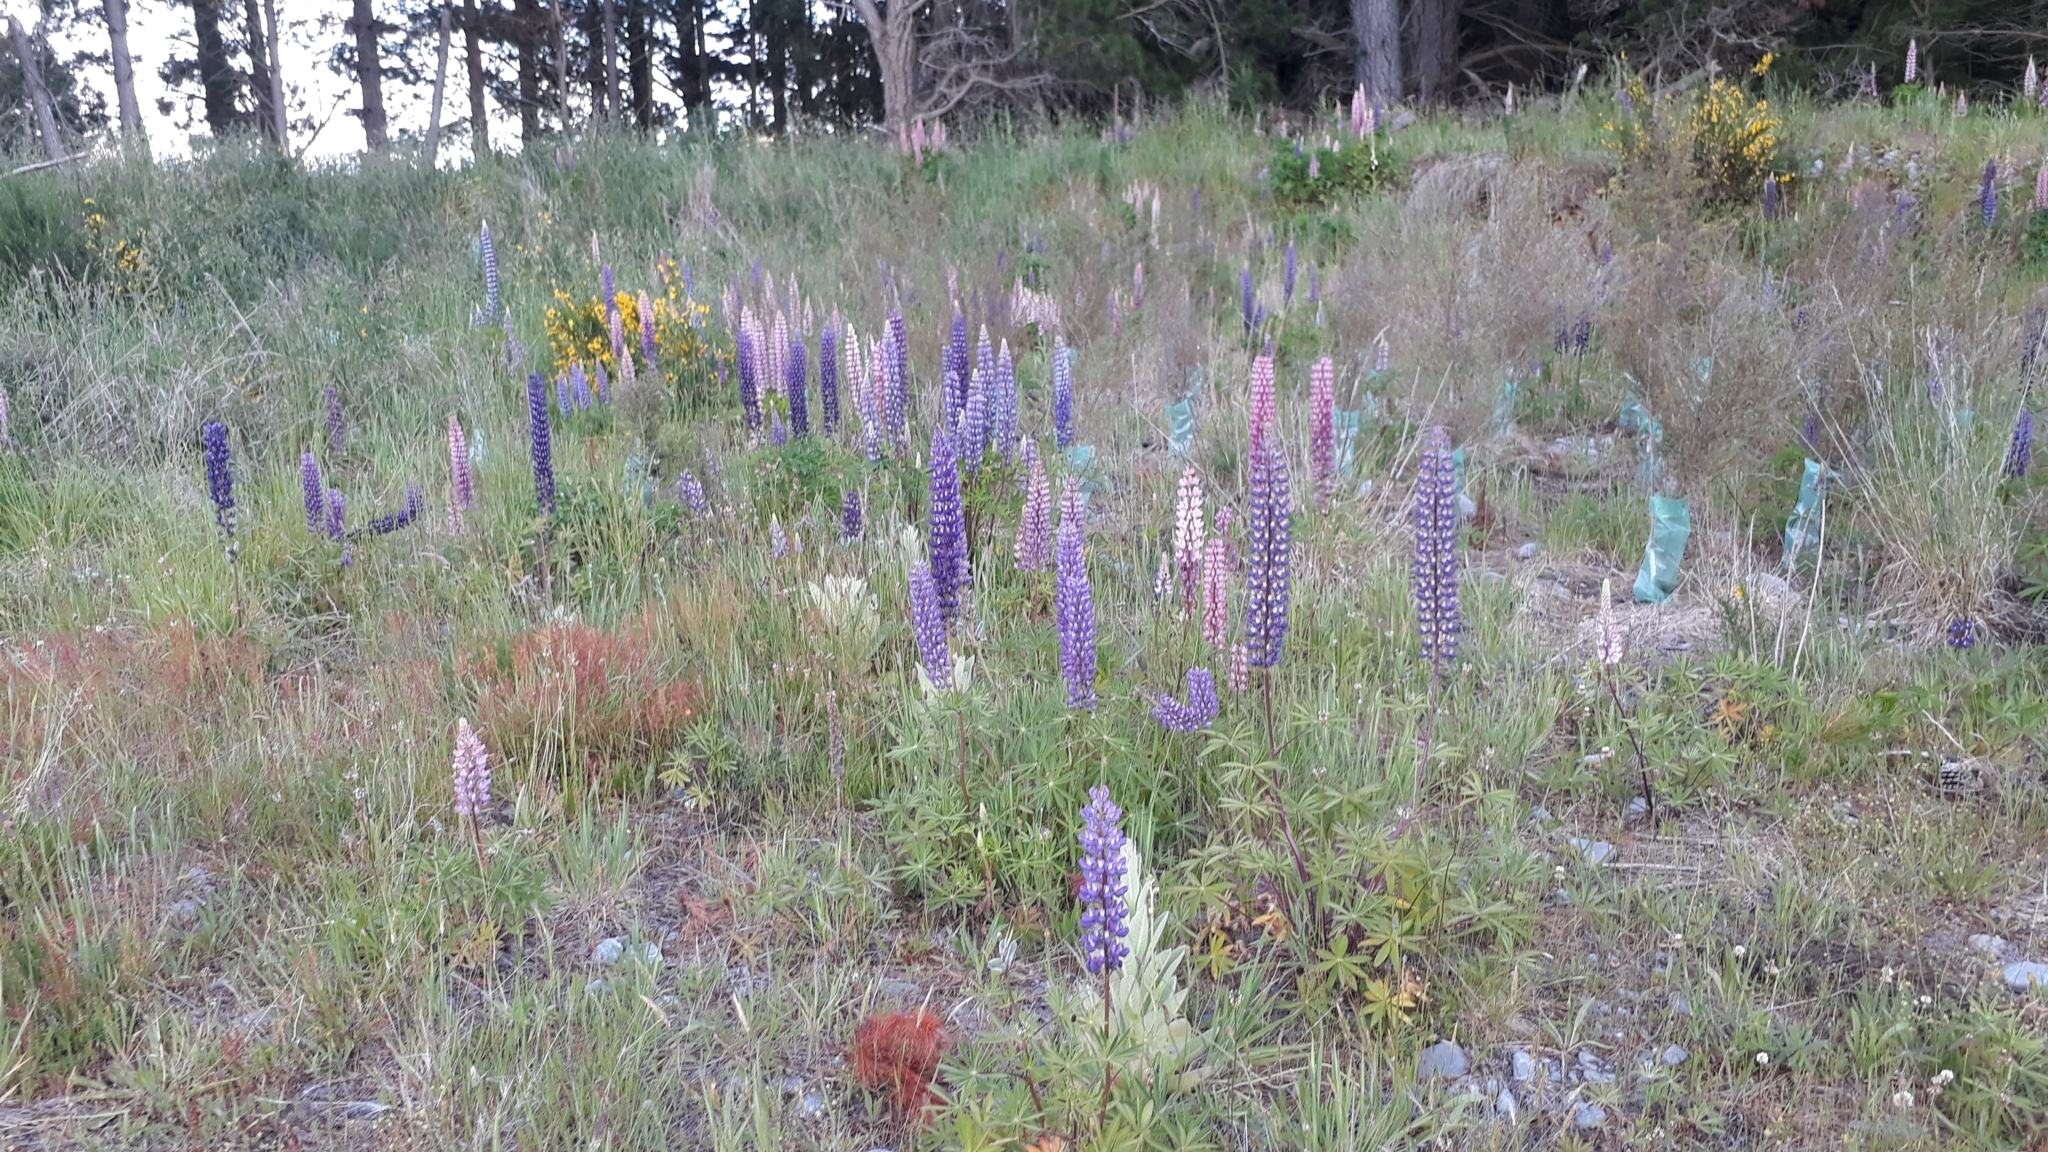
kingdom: Plantae
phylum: Tracheophyta
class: Magnoliopsida
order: Fabales
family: Fabaceae
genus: Lupinus
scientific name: Lupinus polyphyllus
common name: Garden lupin
